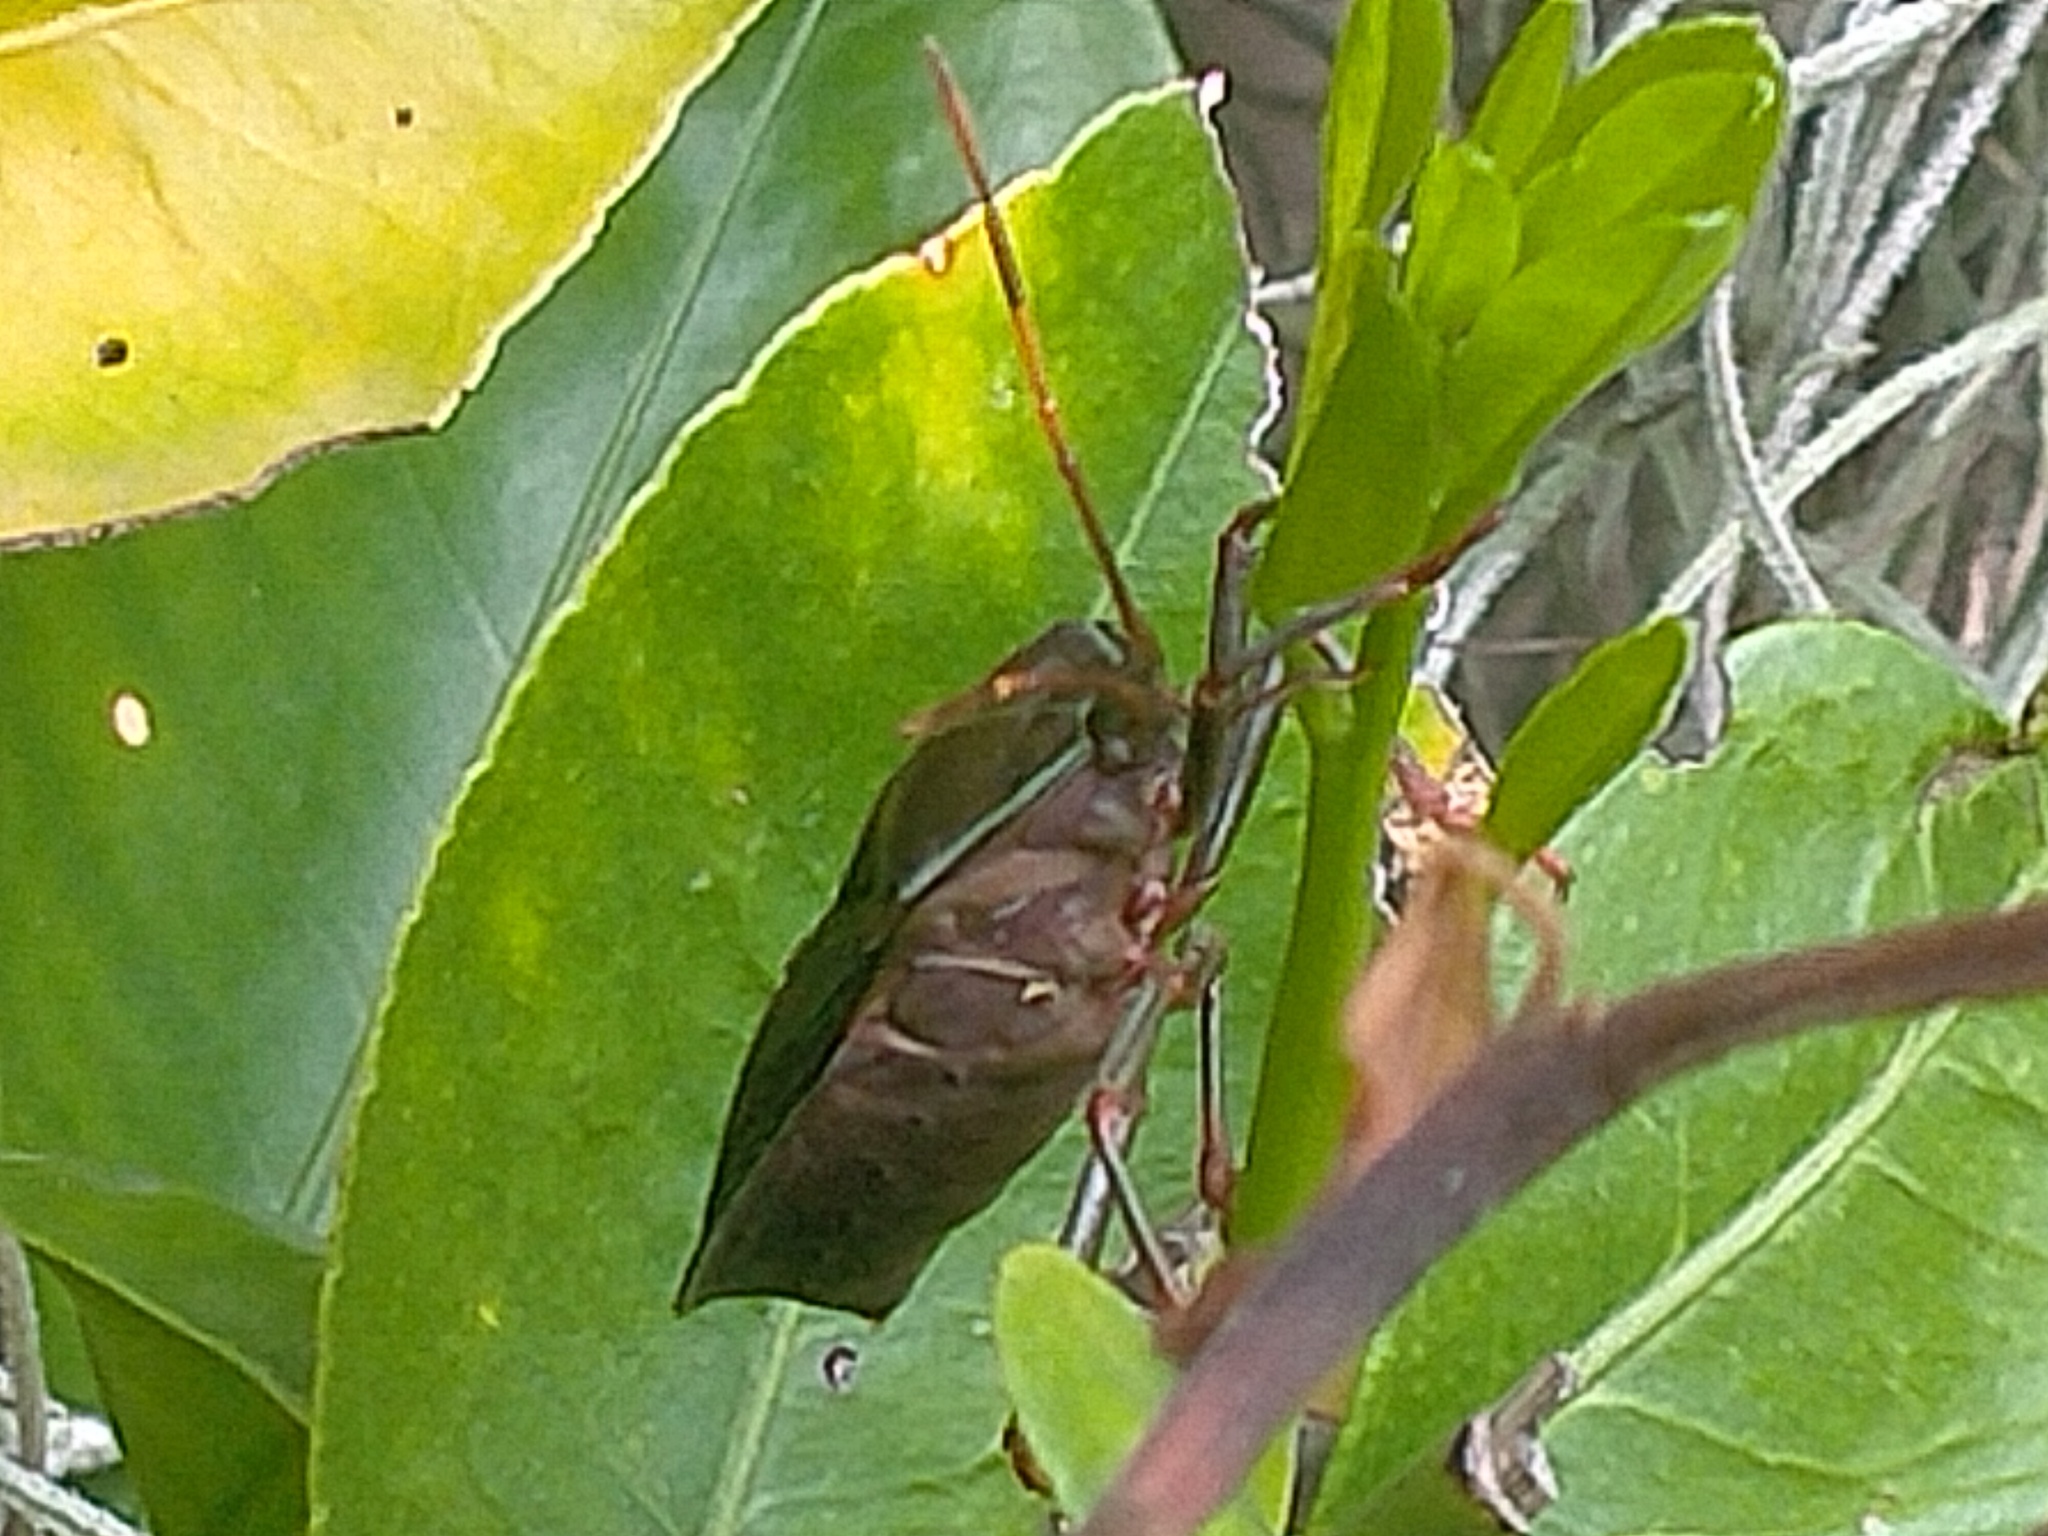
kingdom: Animalia
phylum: Arthropoda
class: Insecta
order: Hemiptera
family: Tessaratomidae
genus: Musgraveia
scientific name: Musgraveia sulciventris
